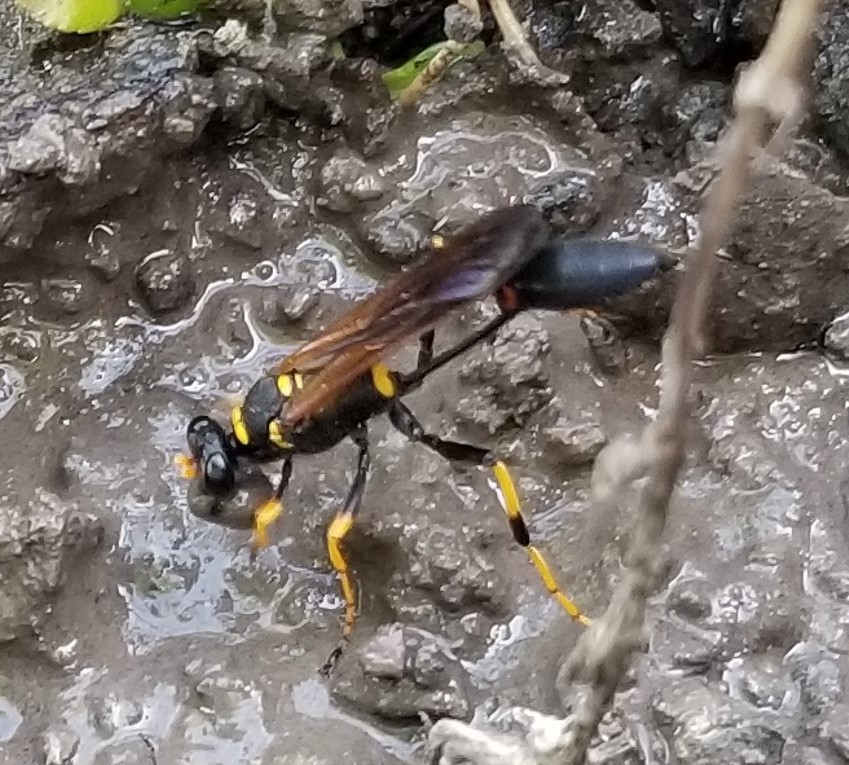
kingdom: Animalia
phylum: Arthropoda
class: Insecta
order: Hymenoptera
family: Sphecidae
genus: Sceliphron
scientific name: Sceliphron caementarium
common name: Mud dauber
